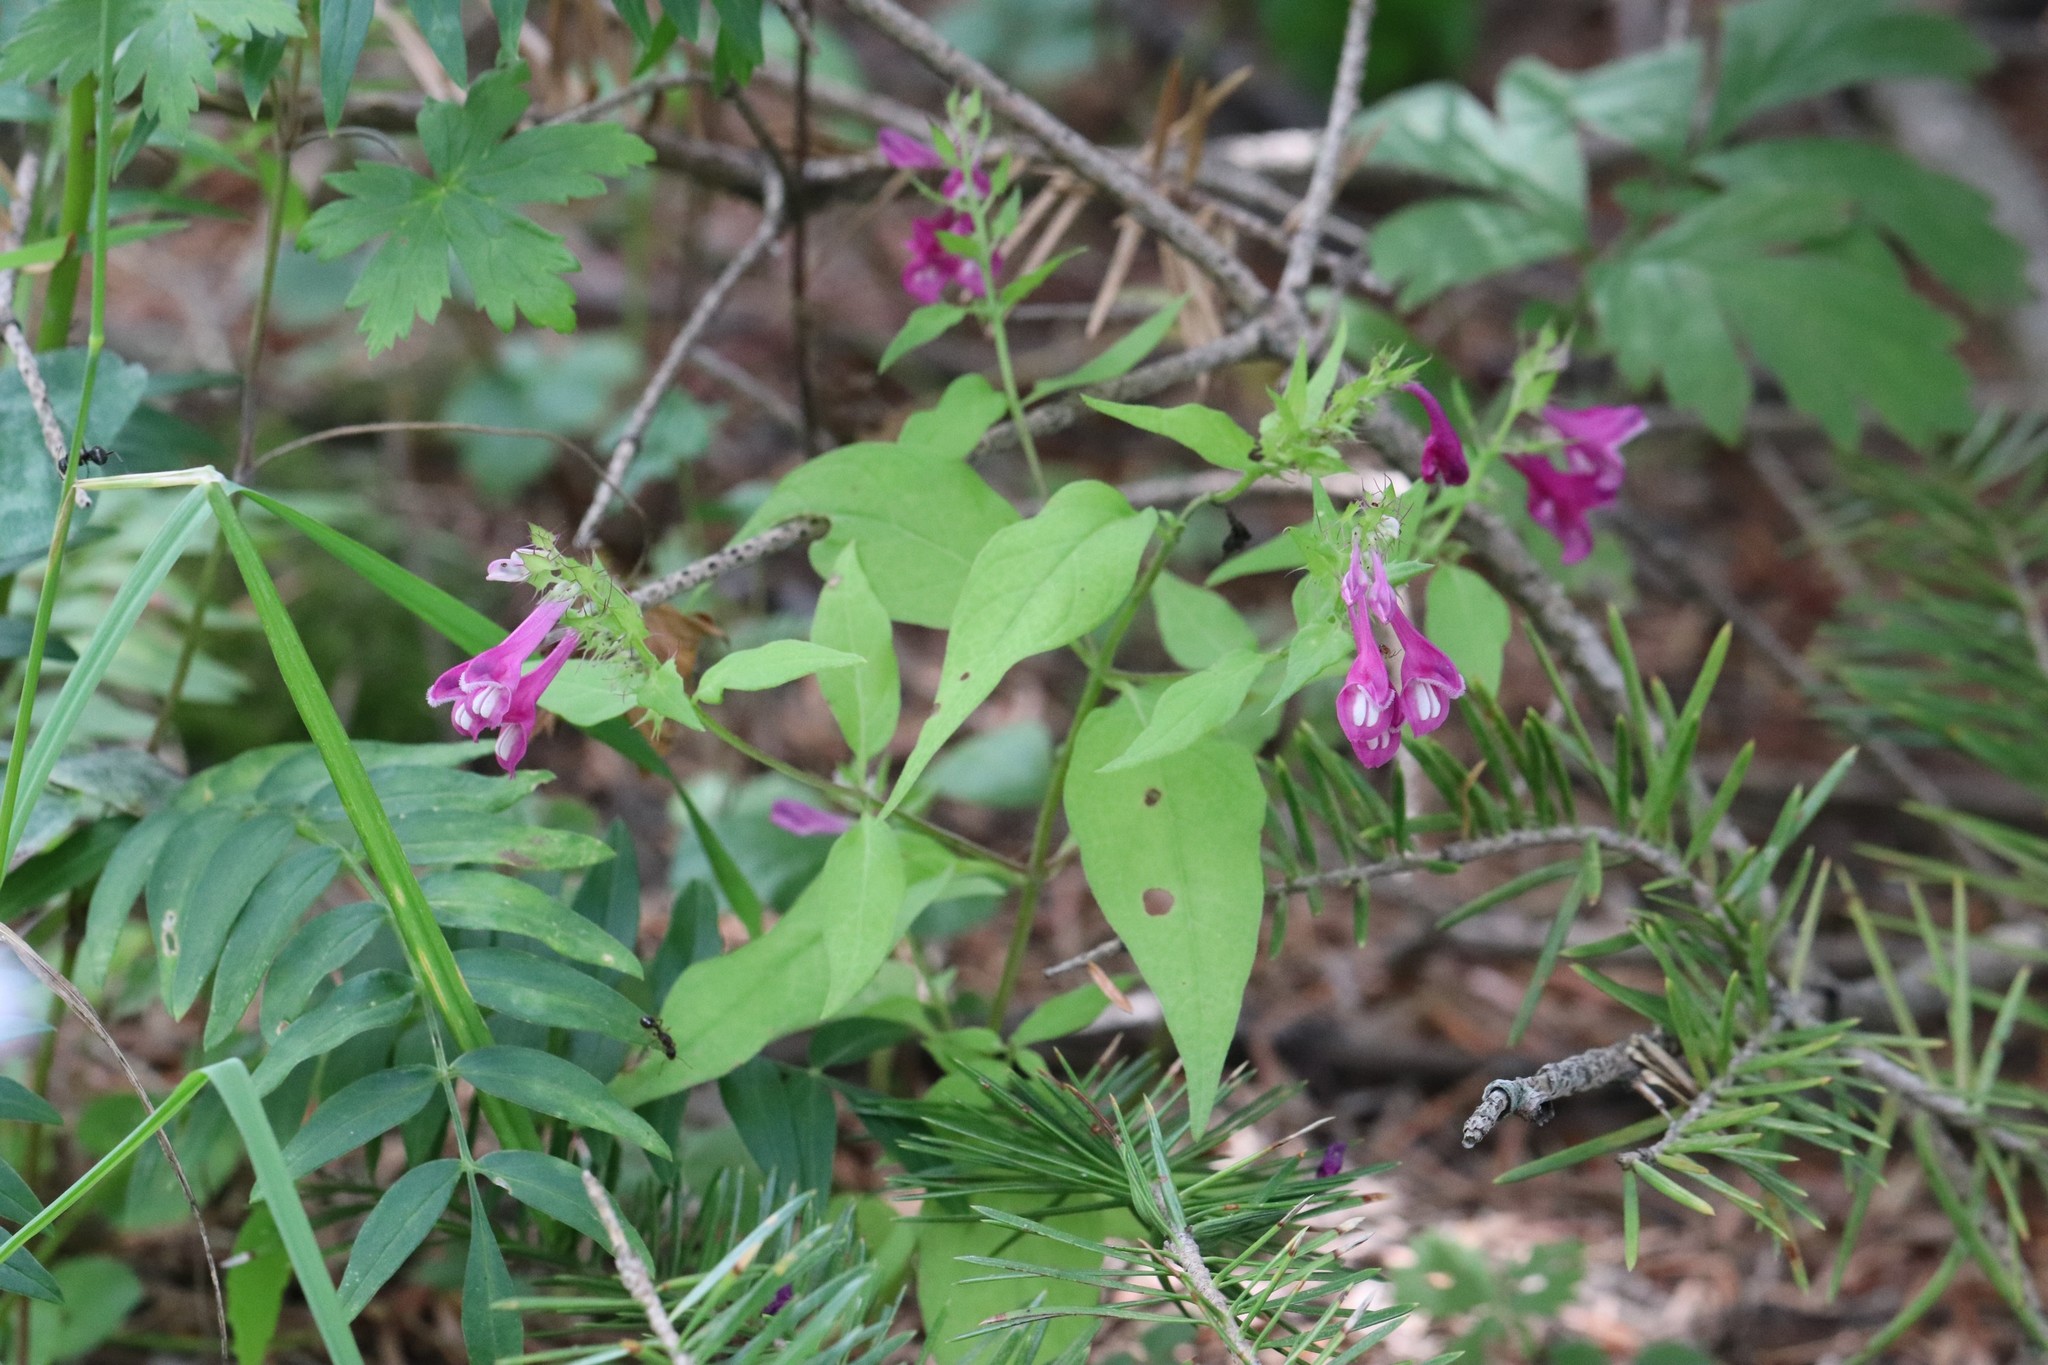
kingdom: Plantae
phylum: Tracheophyta
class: Magnoliopsida
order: Lamiales
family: Orobanchaceae
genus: Melampyrum
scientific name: Melampyrum roseum
